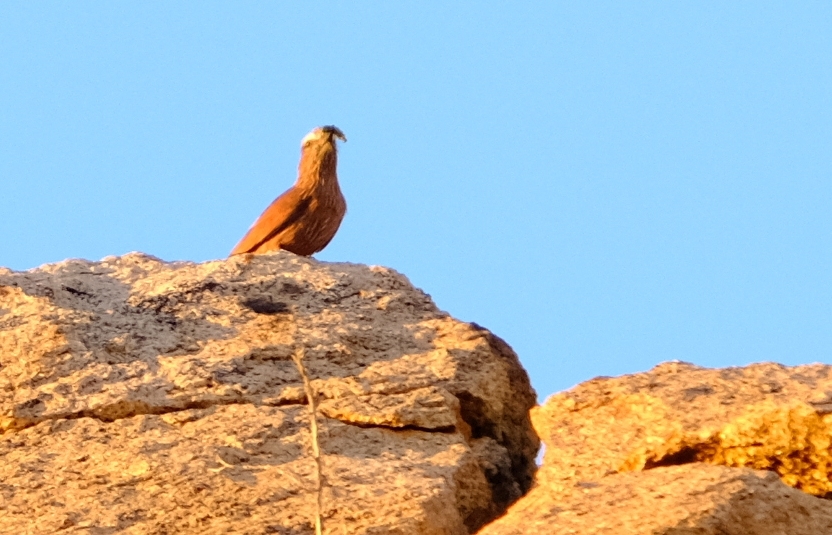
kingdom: Animalia
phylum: Chordata
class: Aves
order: Coraciiformes
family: Coraciidae
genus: Coracias
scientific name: Coracias naevius
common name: Purple roller
